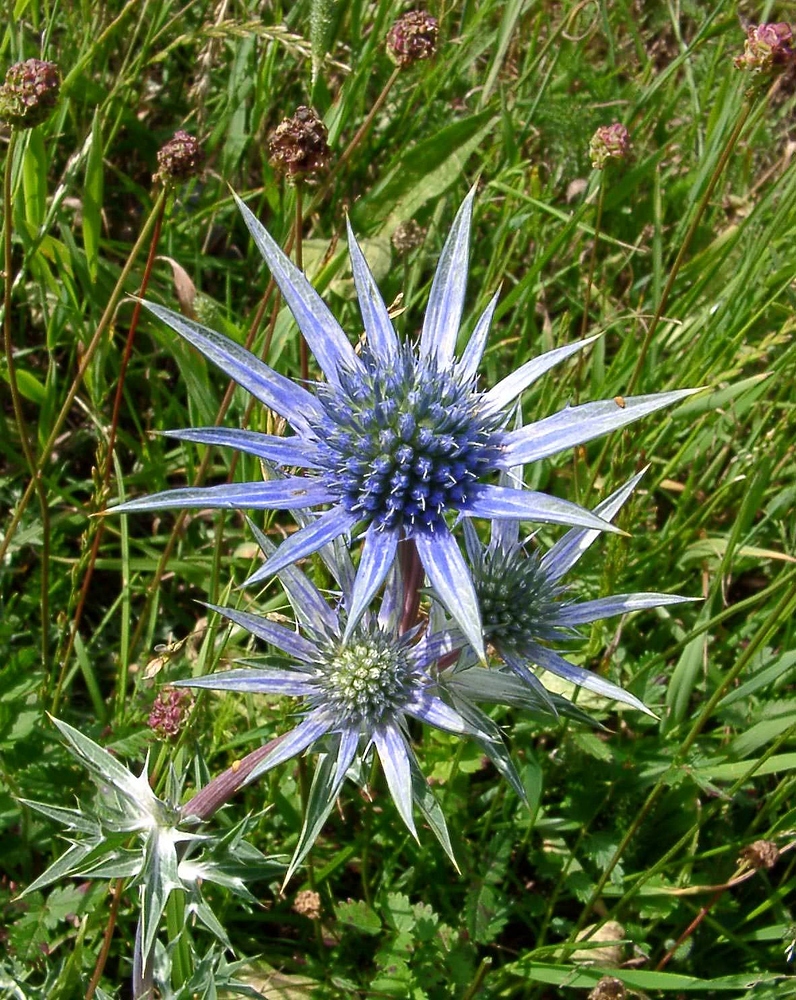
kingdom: Plantae
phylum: Tracheophyta
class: Magnoliopsida
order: Apiales
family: Apiaceae
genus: Eryngium
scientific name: Eryngium bourgatii
